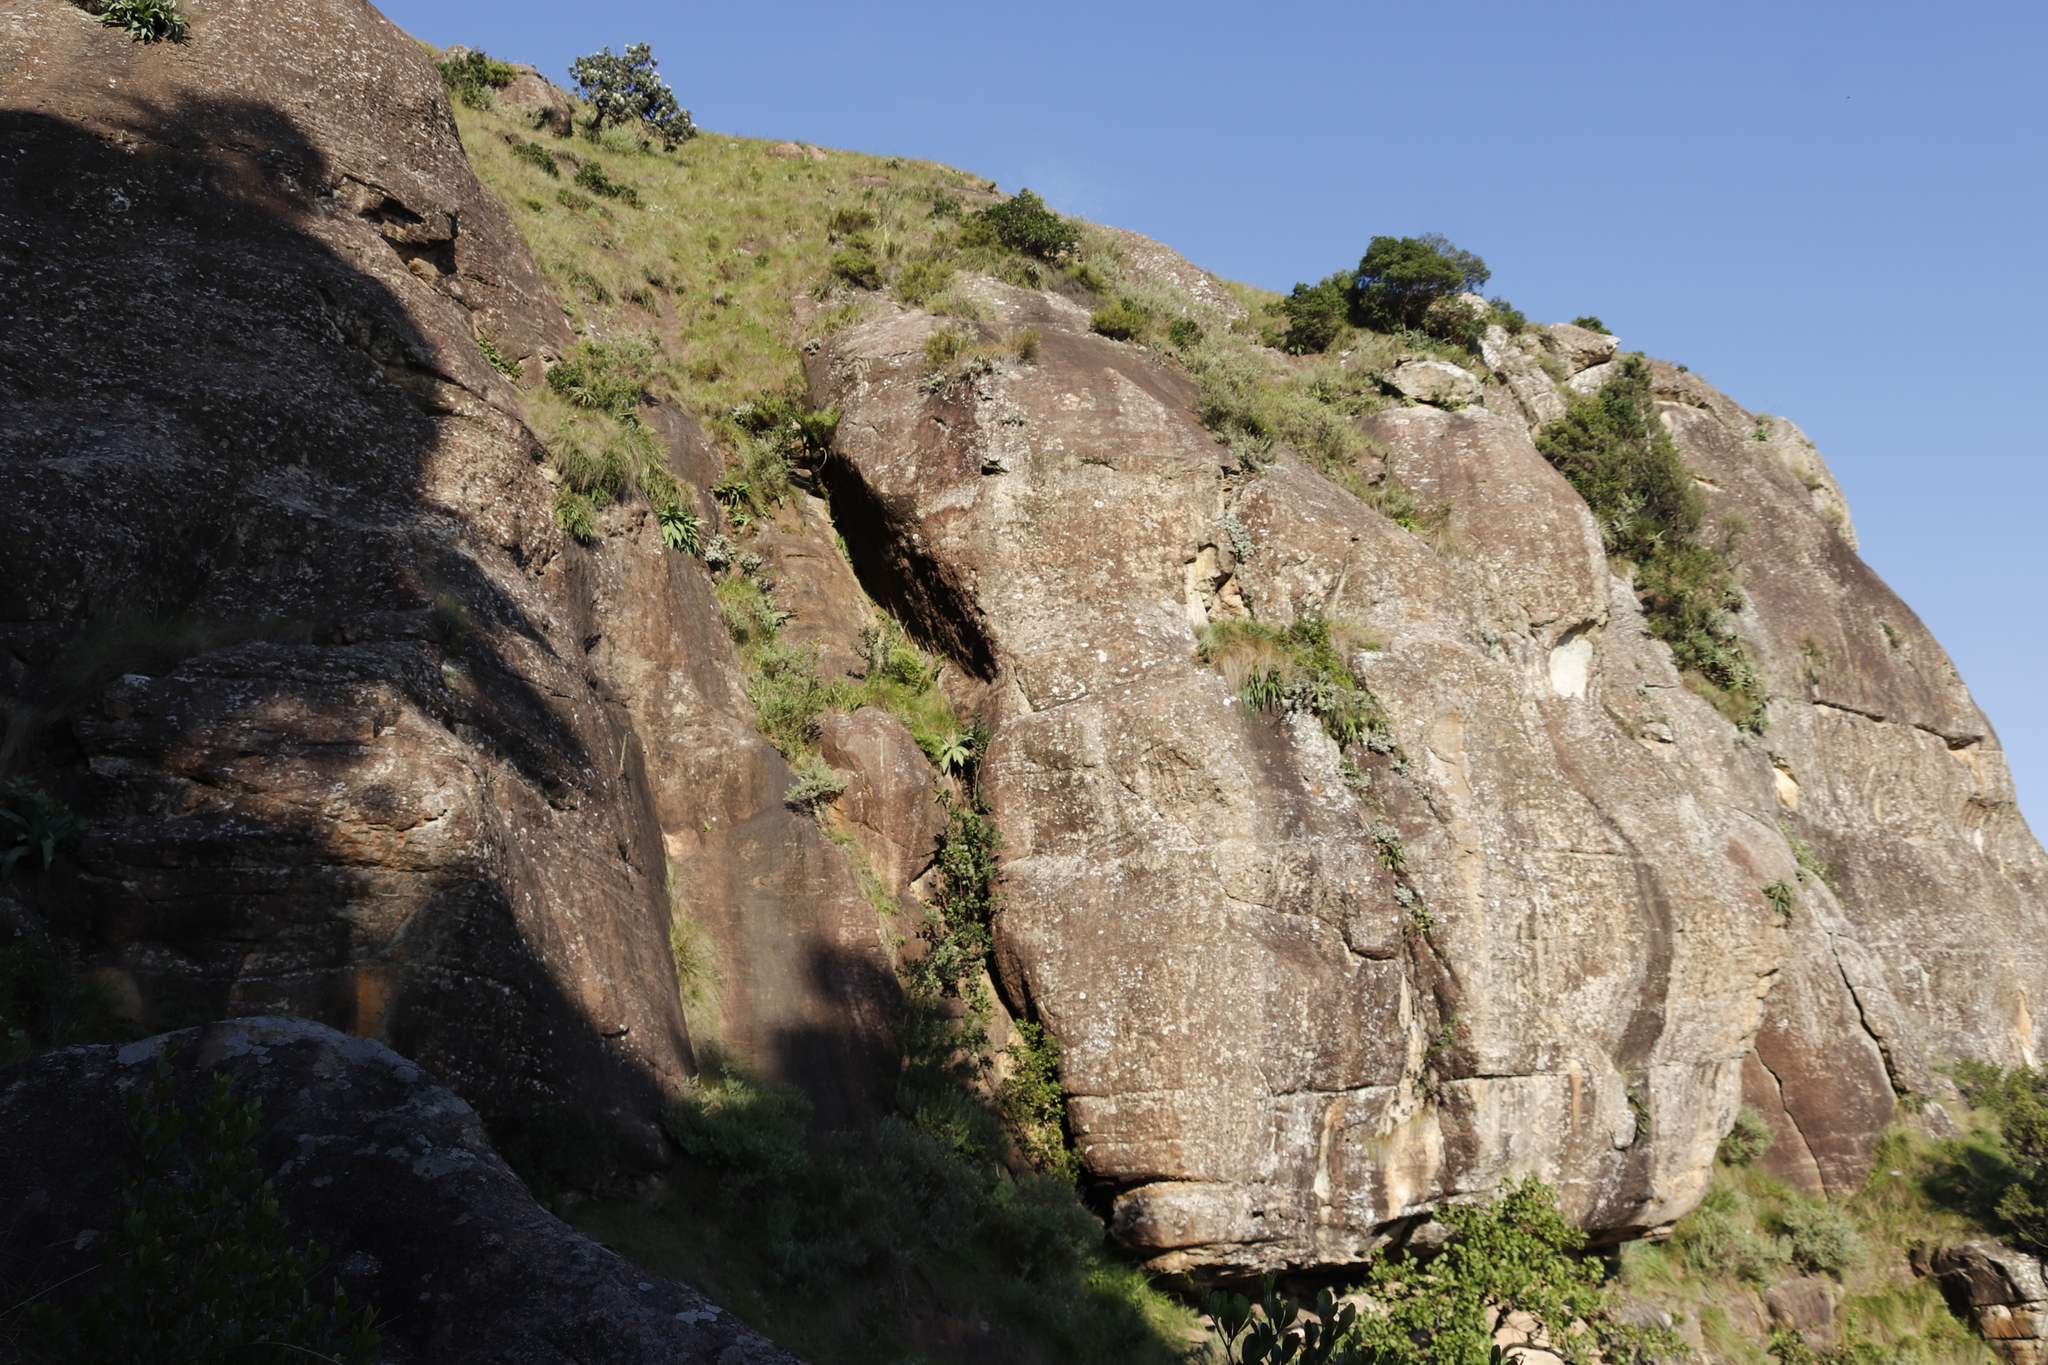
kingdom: Plantae
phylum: Tracheophyta
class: Liliopsida
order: Asparagales
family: Asparagaceae
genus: Merwilla
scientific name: Merwilla plumbea
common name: Blue-squill
